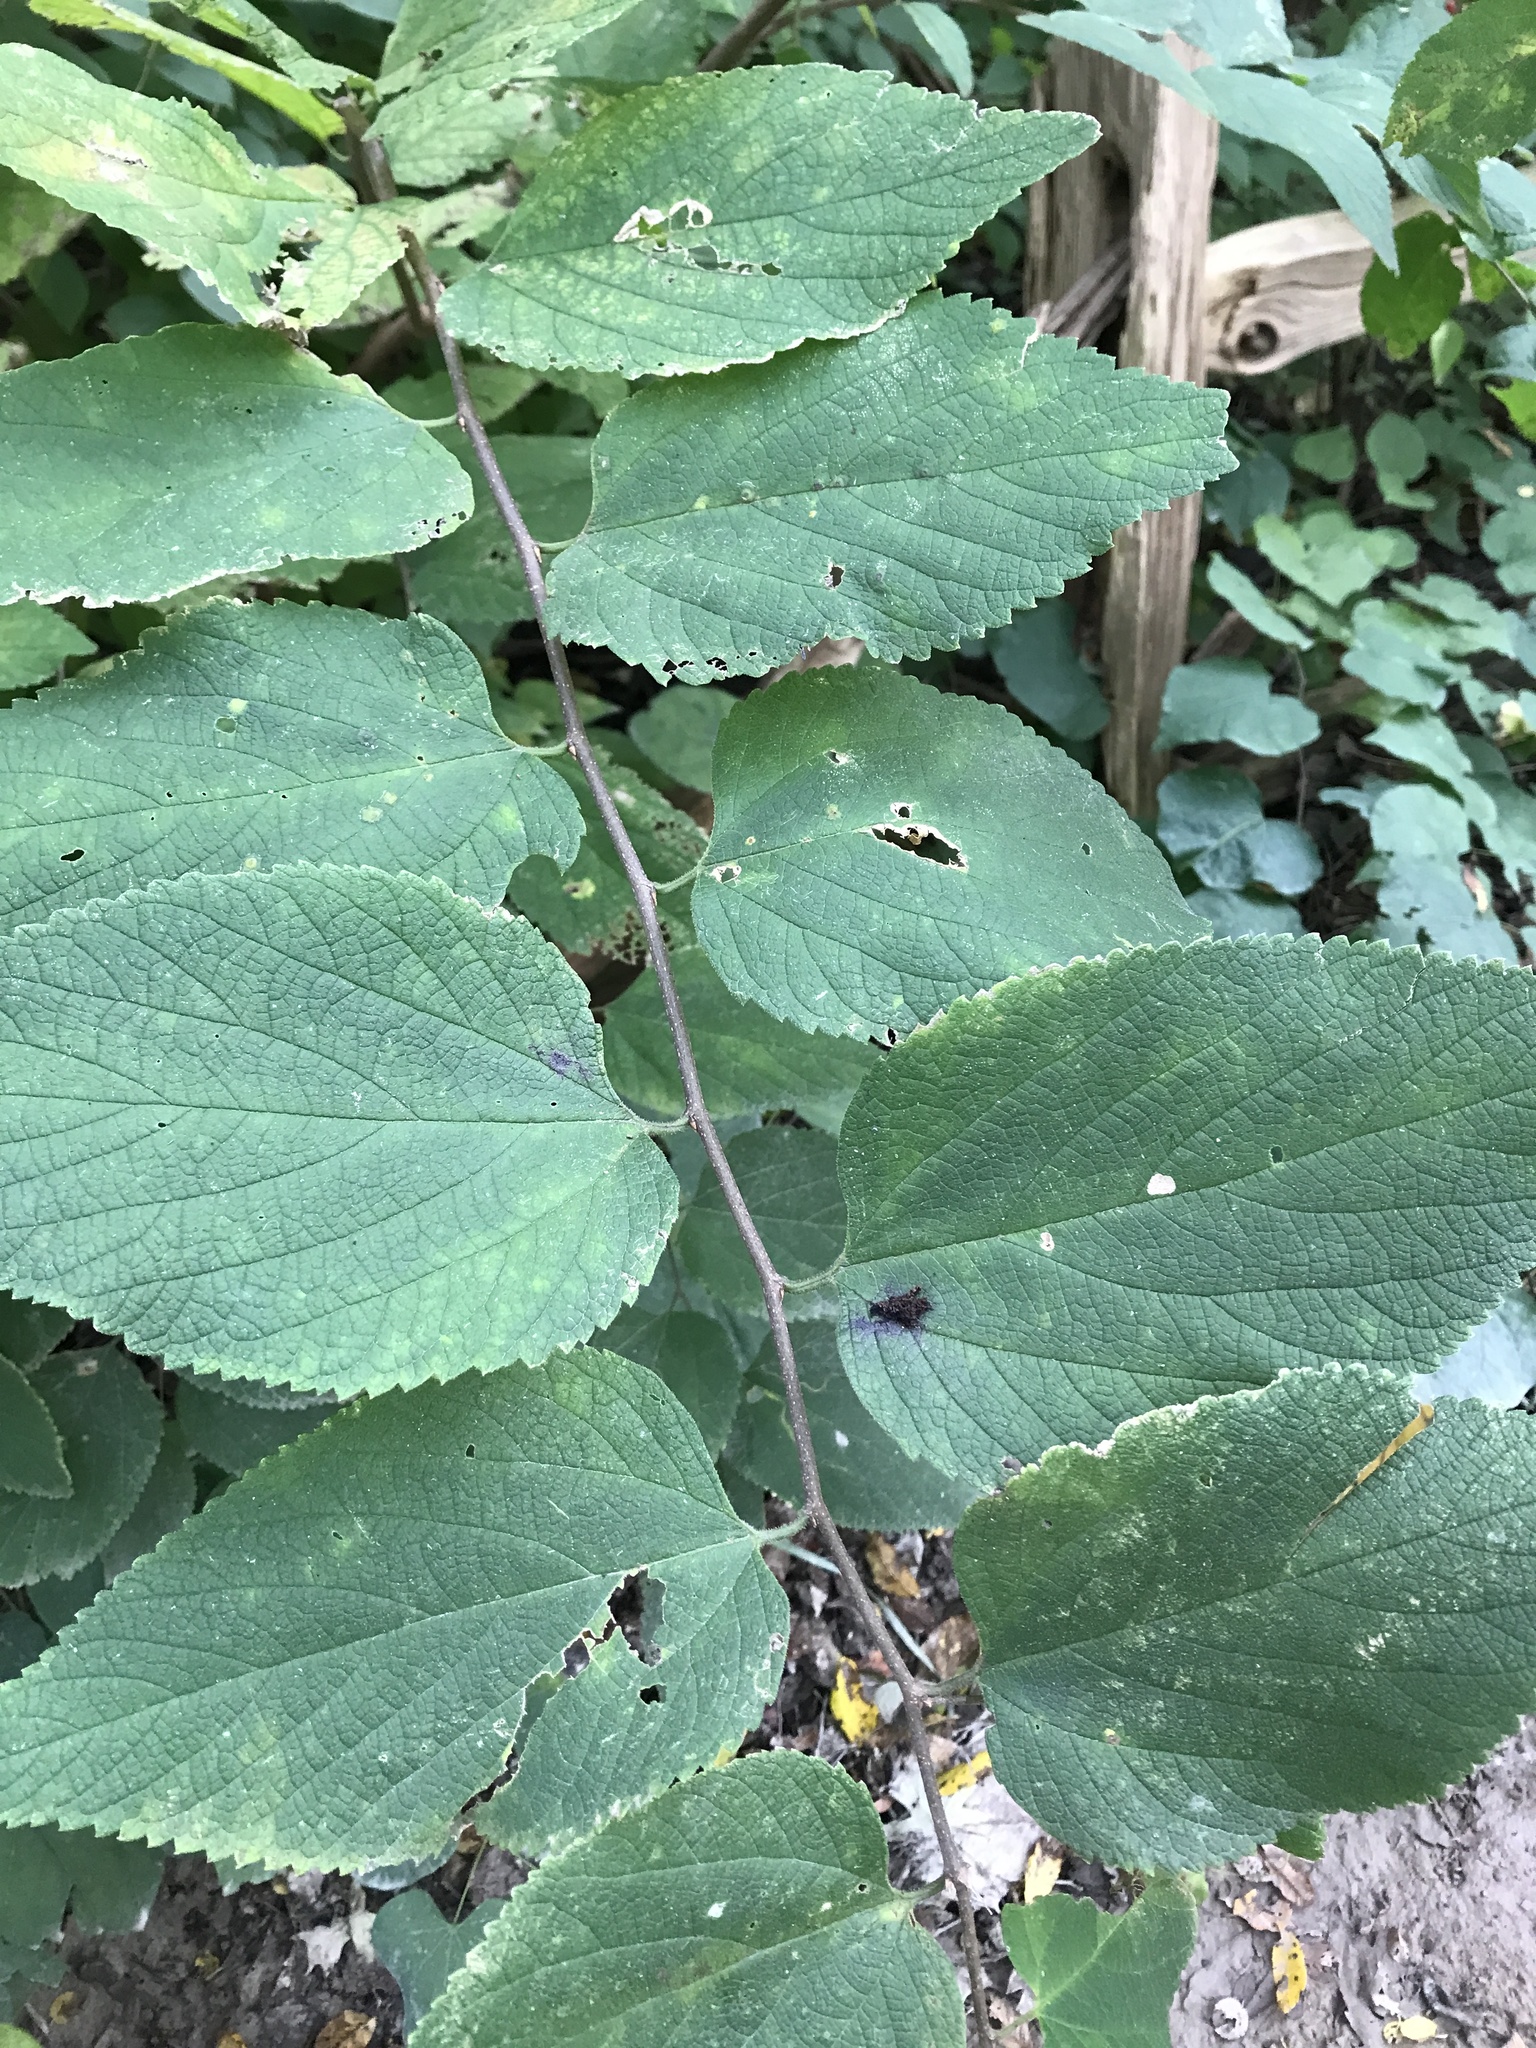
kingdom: Plantae
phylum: Tracheophyta
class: Magnoliopsida
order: Rosales
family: Cannabaceae
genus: Celtis
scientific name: Celtis occidentalis
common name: Common hackberry
